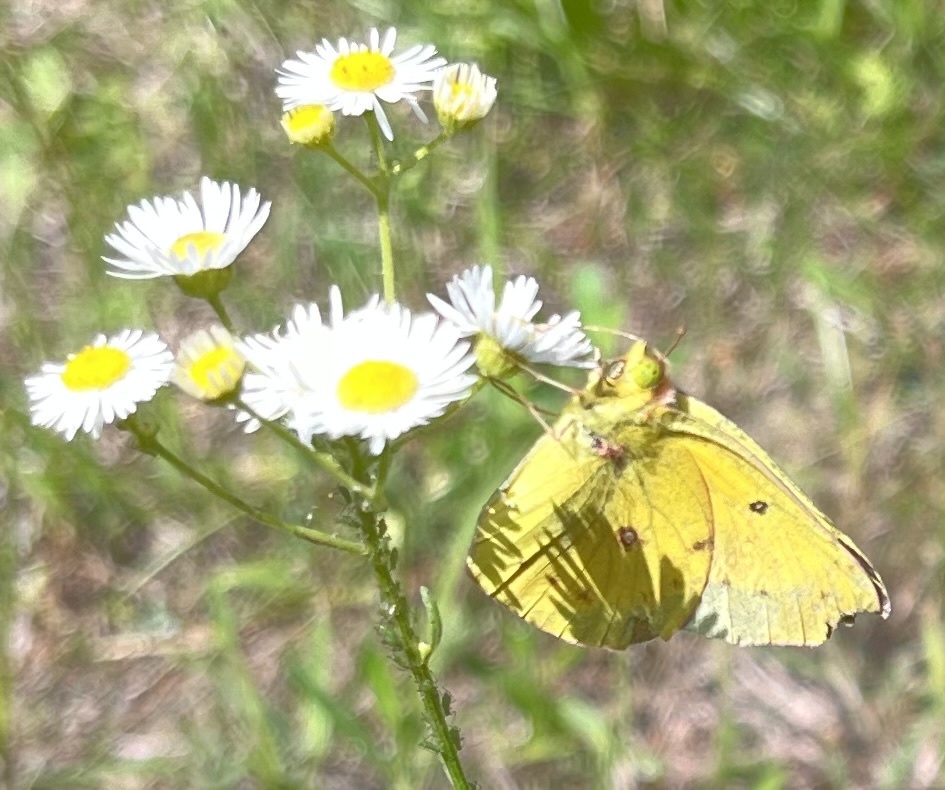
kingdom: Animalia
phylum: Arthropoda
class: Insecta
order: Lepidoptera
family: Pieridae
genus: Colias
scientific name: Colias eurytheme
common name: Alfalfa butterfly
